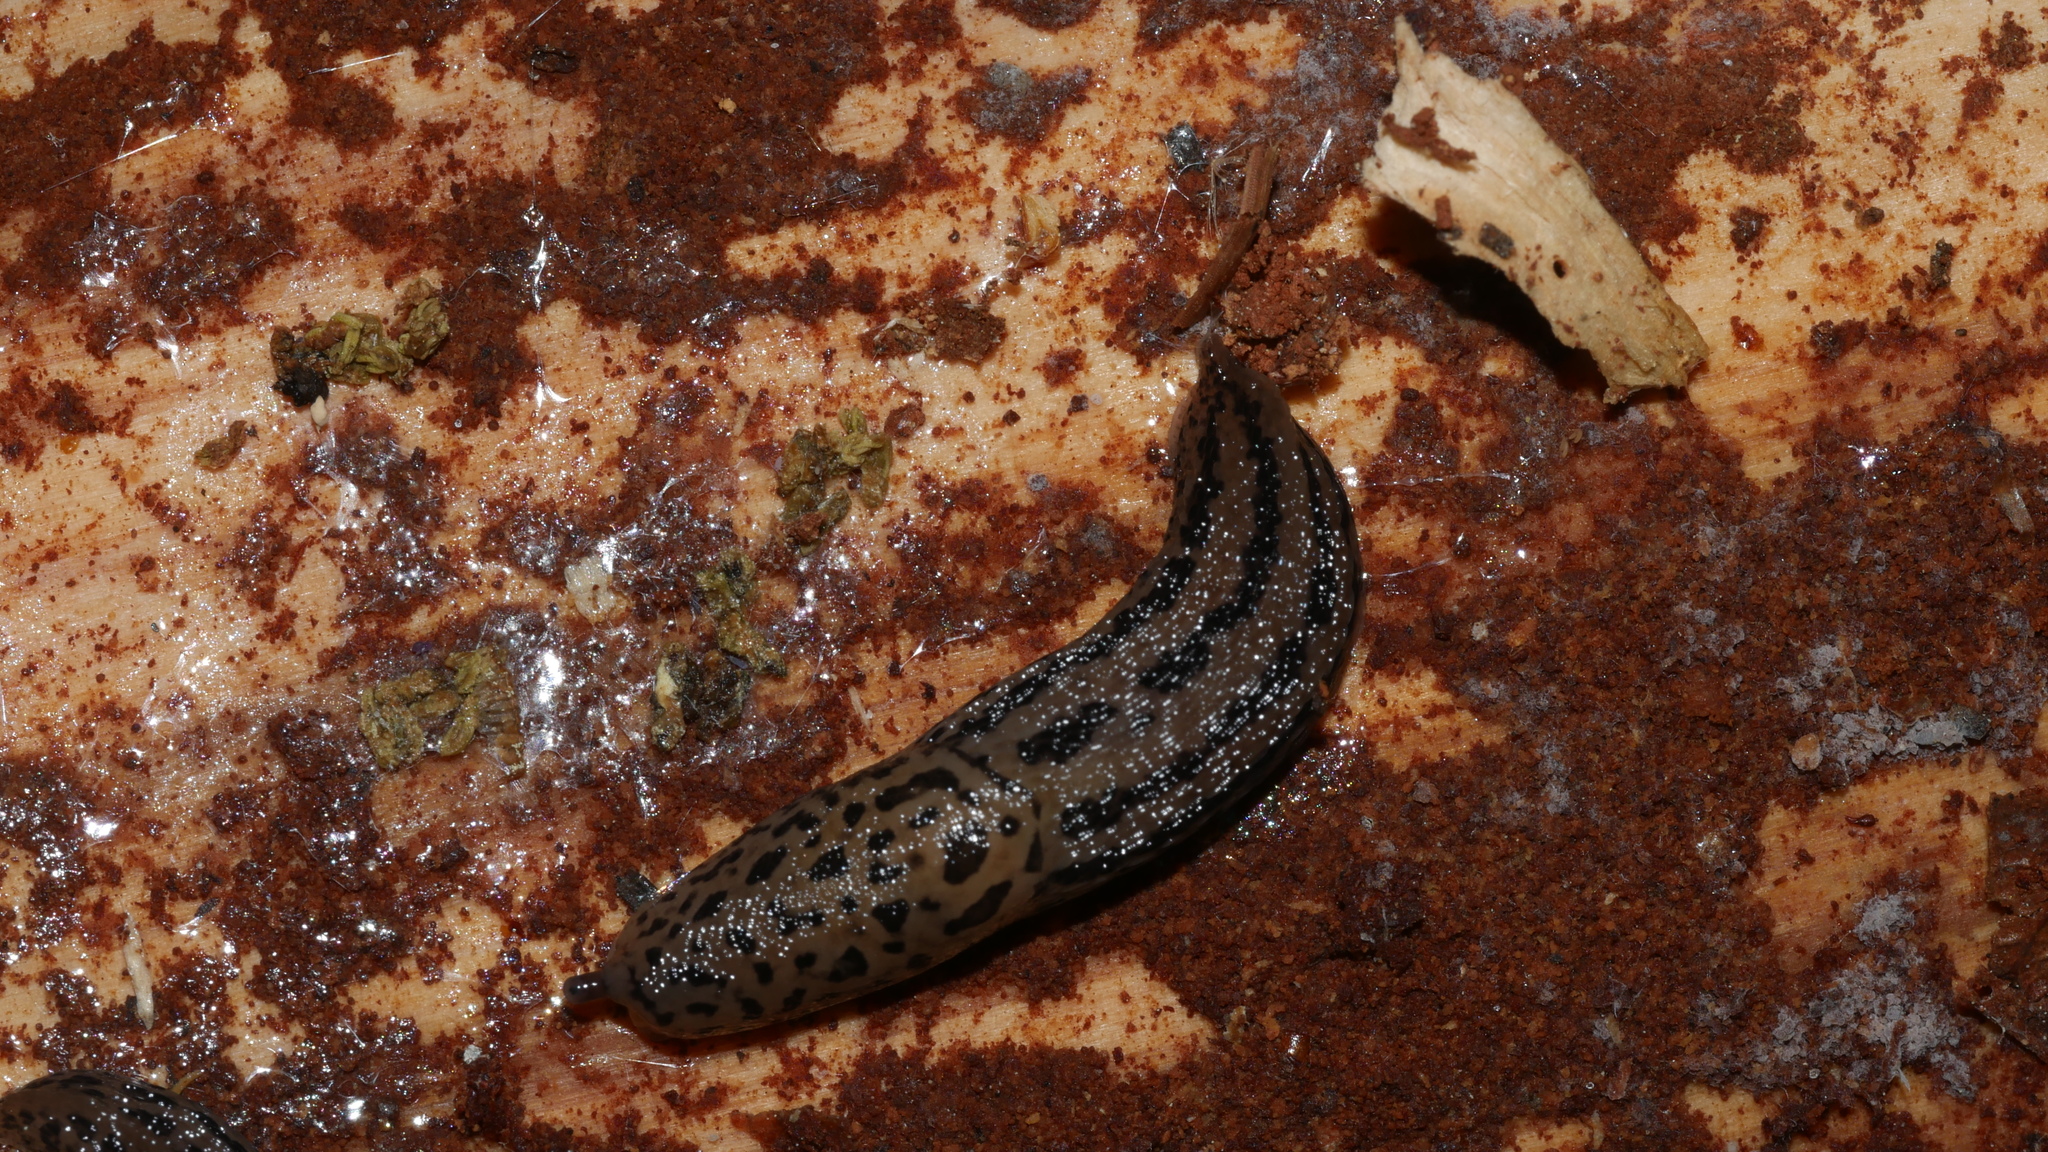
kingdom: Animalia
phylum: Mollusca
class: Gastropoda
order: Stylommatophora
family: Limacidae
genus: Limax
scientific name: Limax maximus
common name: Great grey slug
